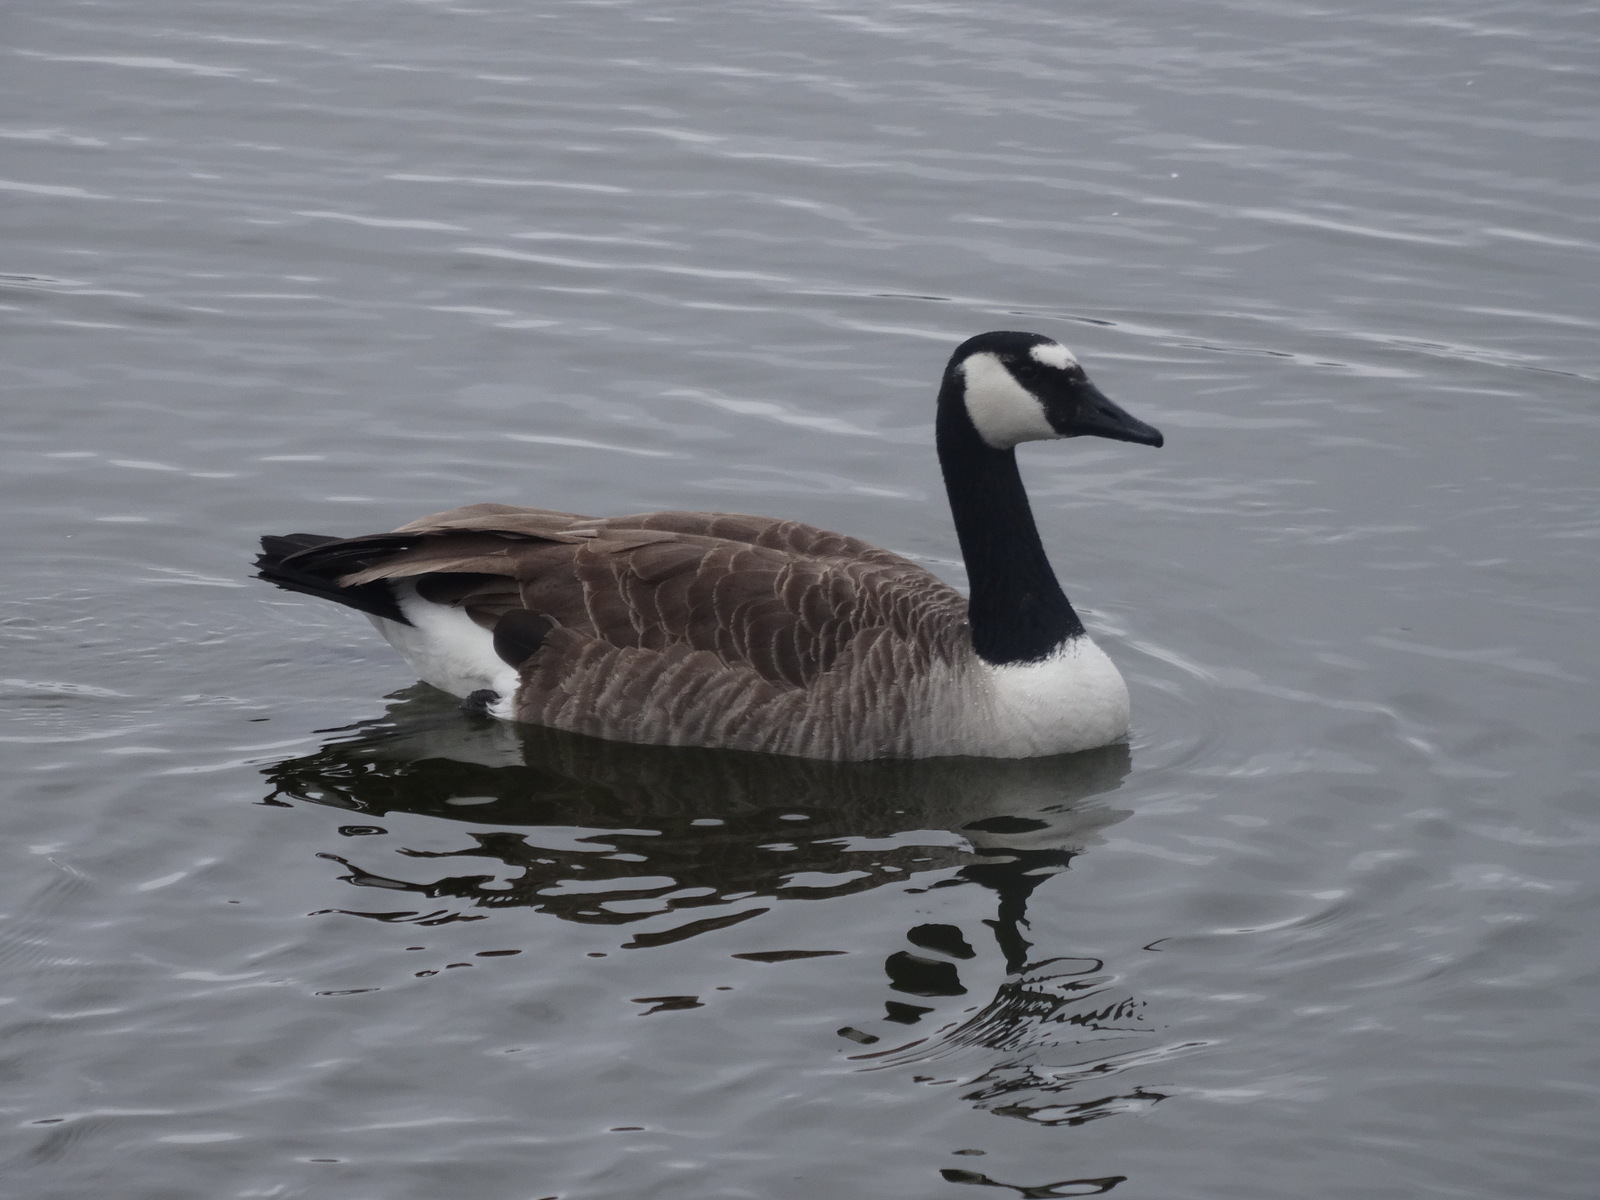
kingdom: Animalia
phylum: Chordata
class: Aves
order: Anseriformes
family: Anatidae
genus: Branta
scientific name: Branta canadensis
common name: Canada goose
